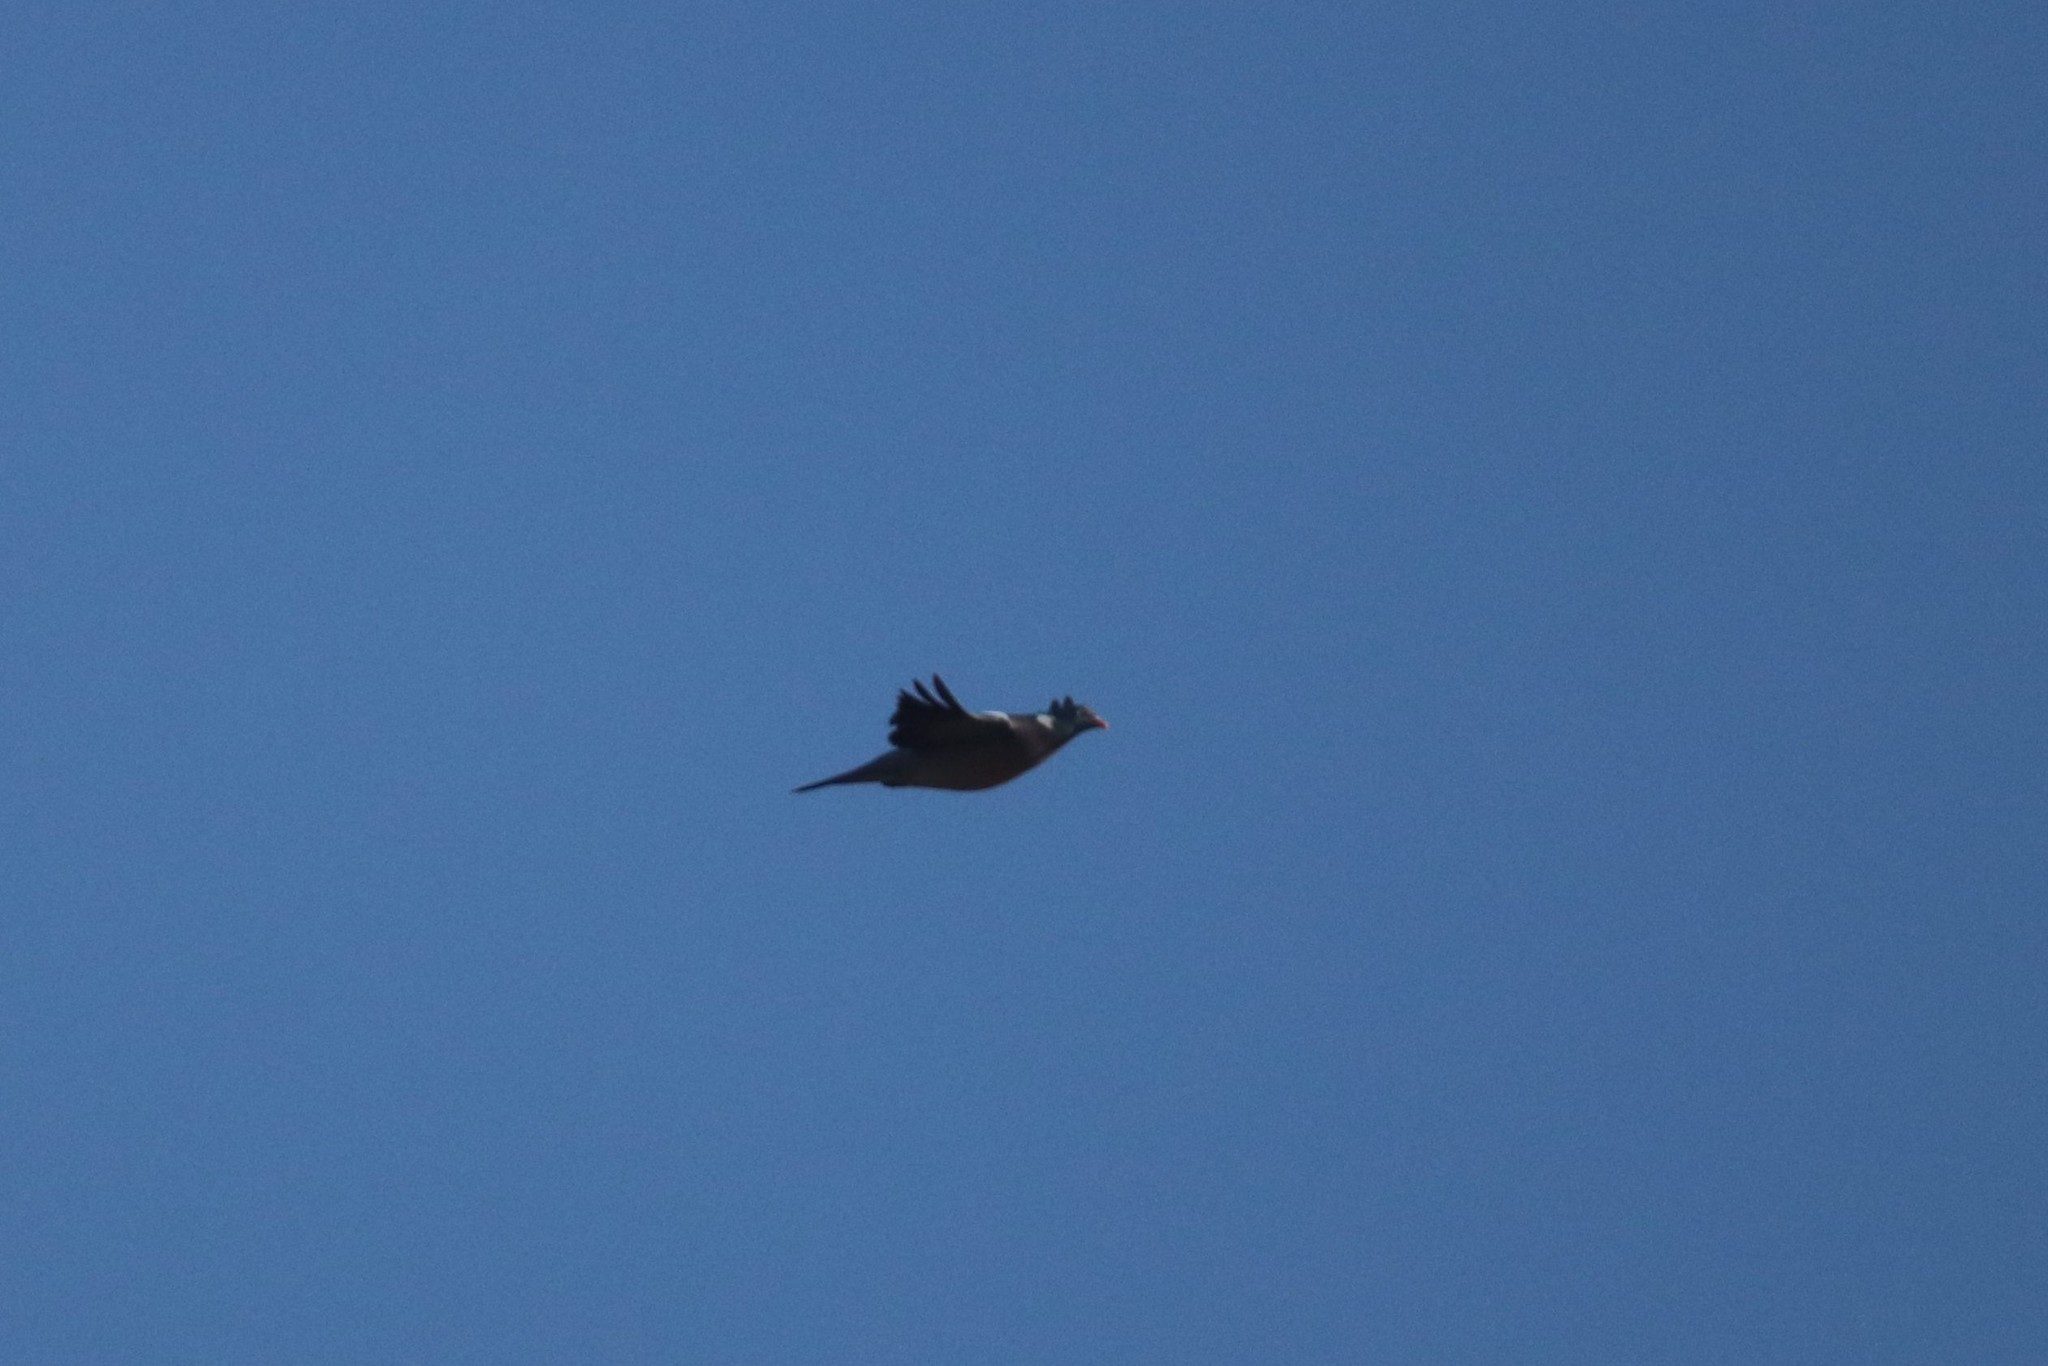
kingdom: Animalia
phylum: Chordata
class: Aves
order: Columbiformes
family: Columbidae
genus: Columba
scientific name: Columba palumbus
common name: Common wood pigeon
